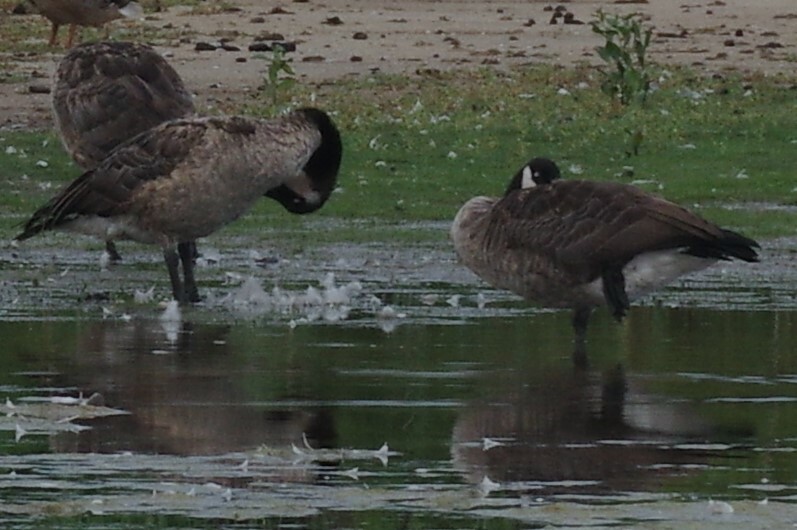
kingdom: Animalia
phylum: Chordata
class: Aves
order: Anseriformes
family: Anatidae
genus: Branta
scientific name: Branta canadensis
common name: Canada goose
